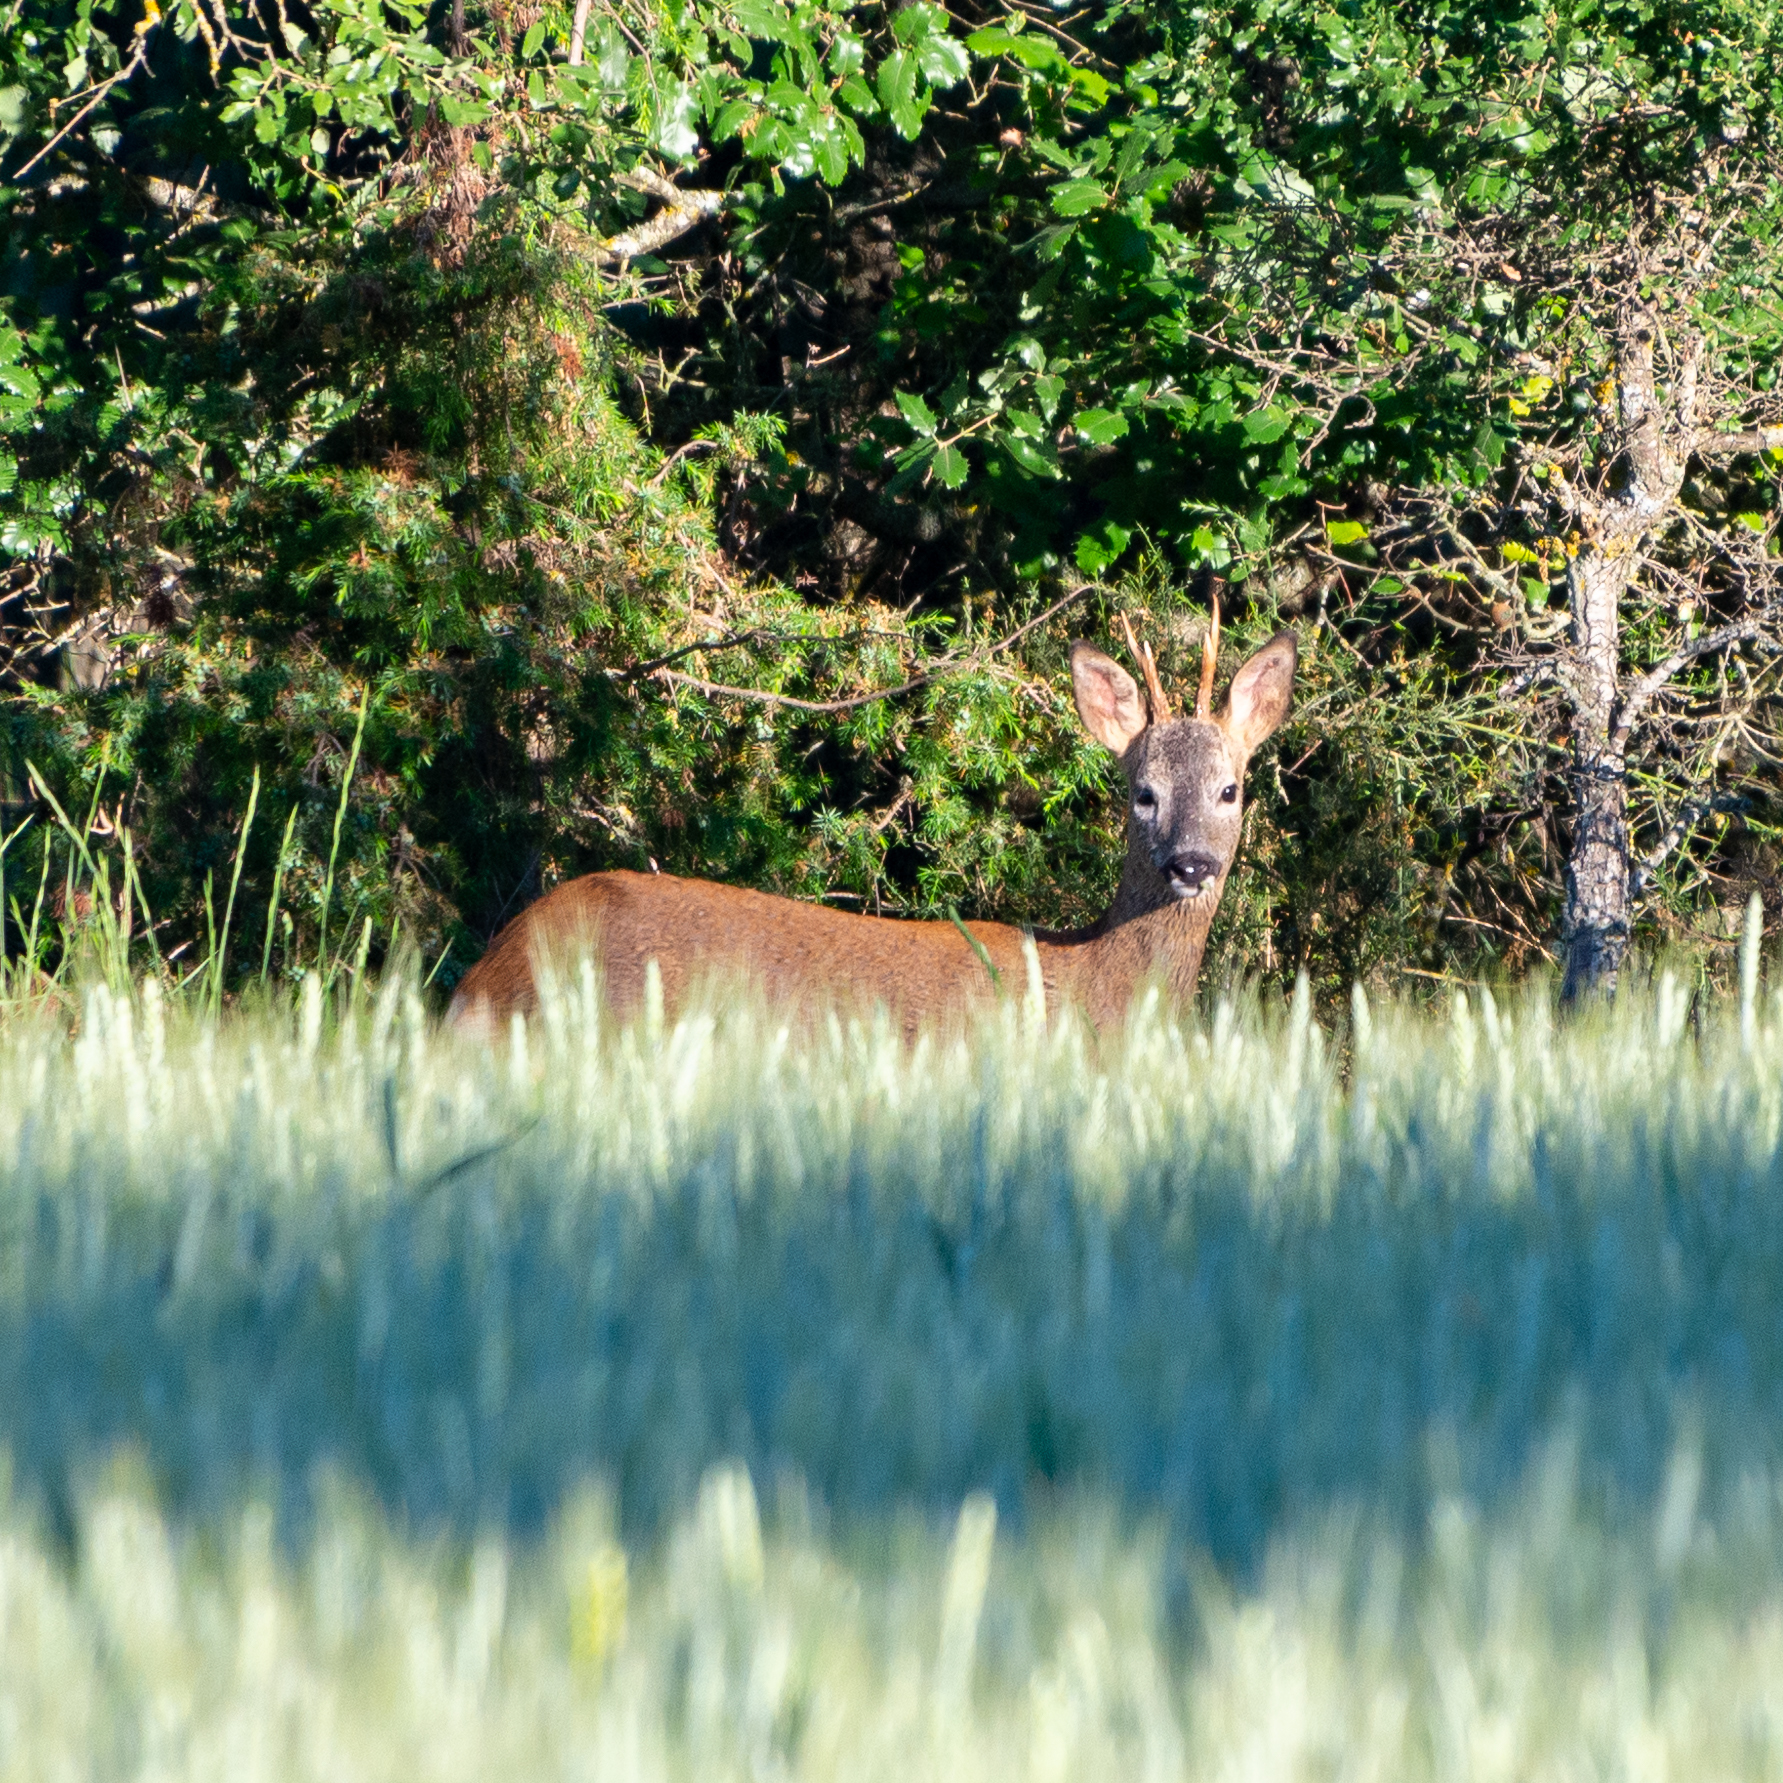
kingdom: Animalia
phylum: Chordata
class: Mammalia
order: Artiodactyla
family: Cervidae
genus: Capreolus
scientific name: Capreolus capreolus
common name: Western roe deer
